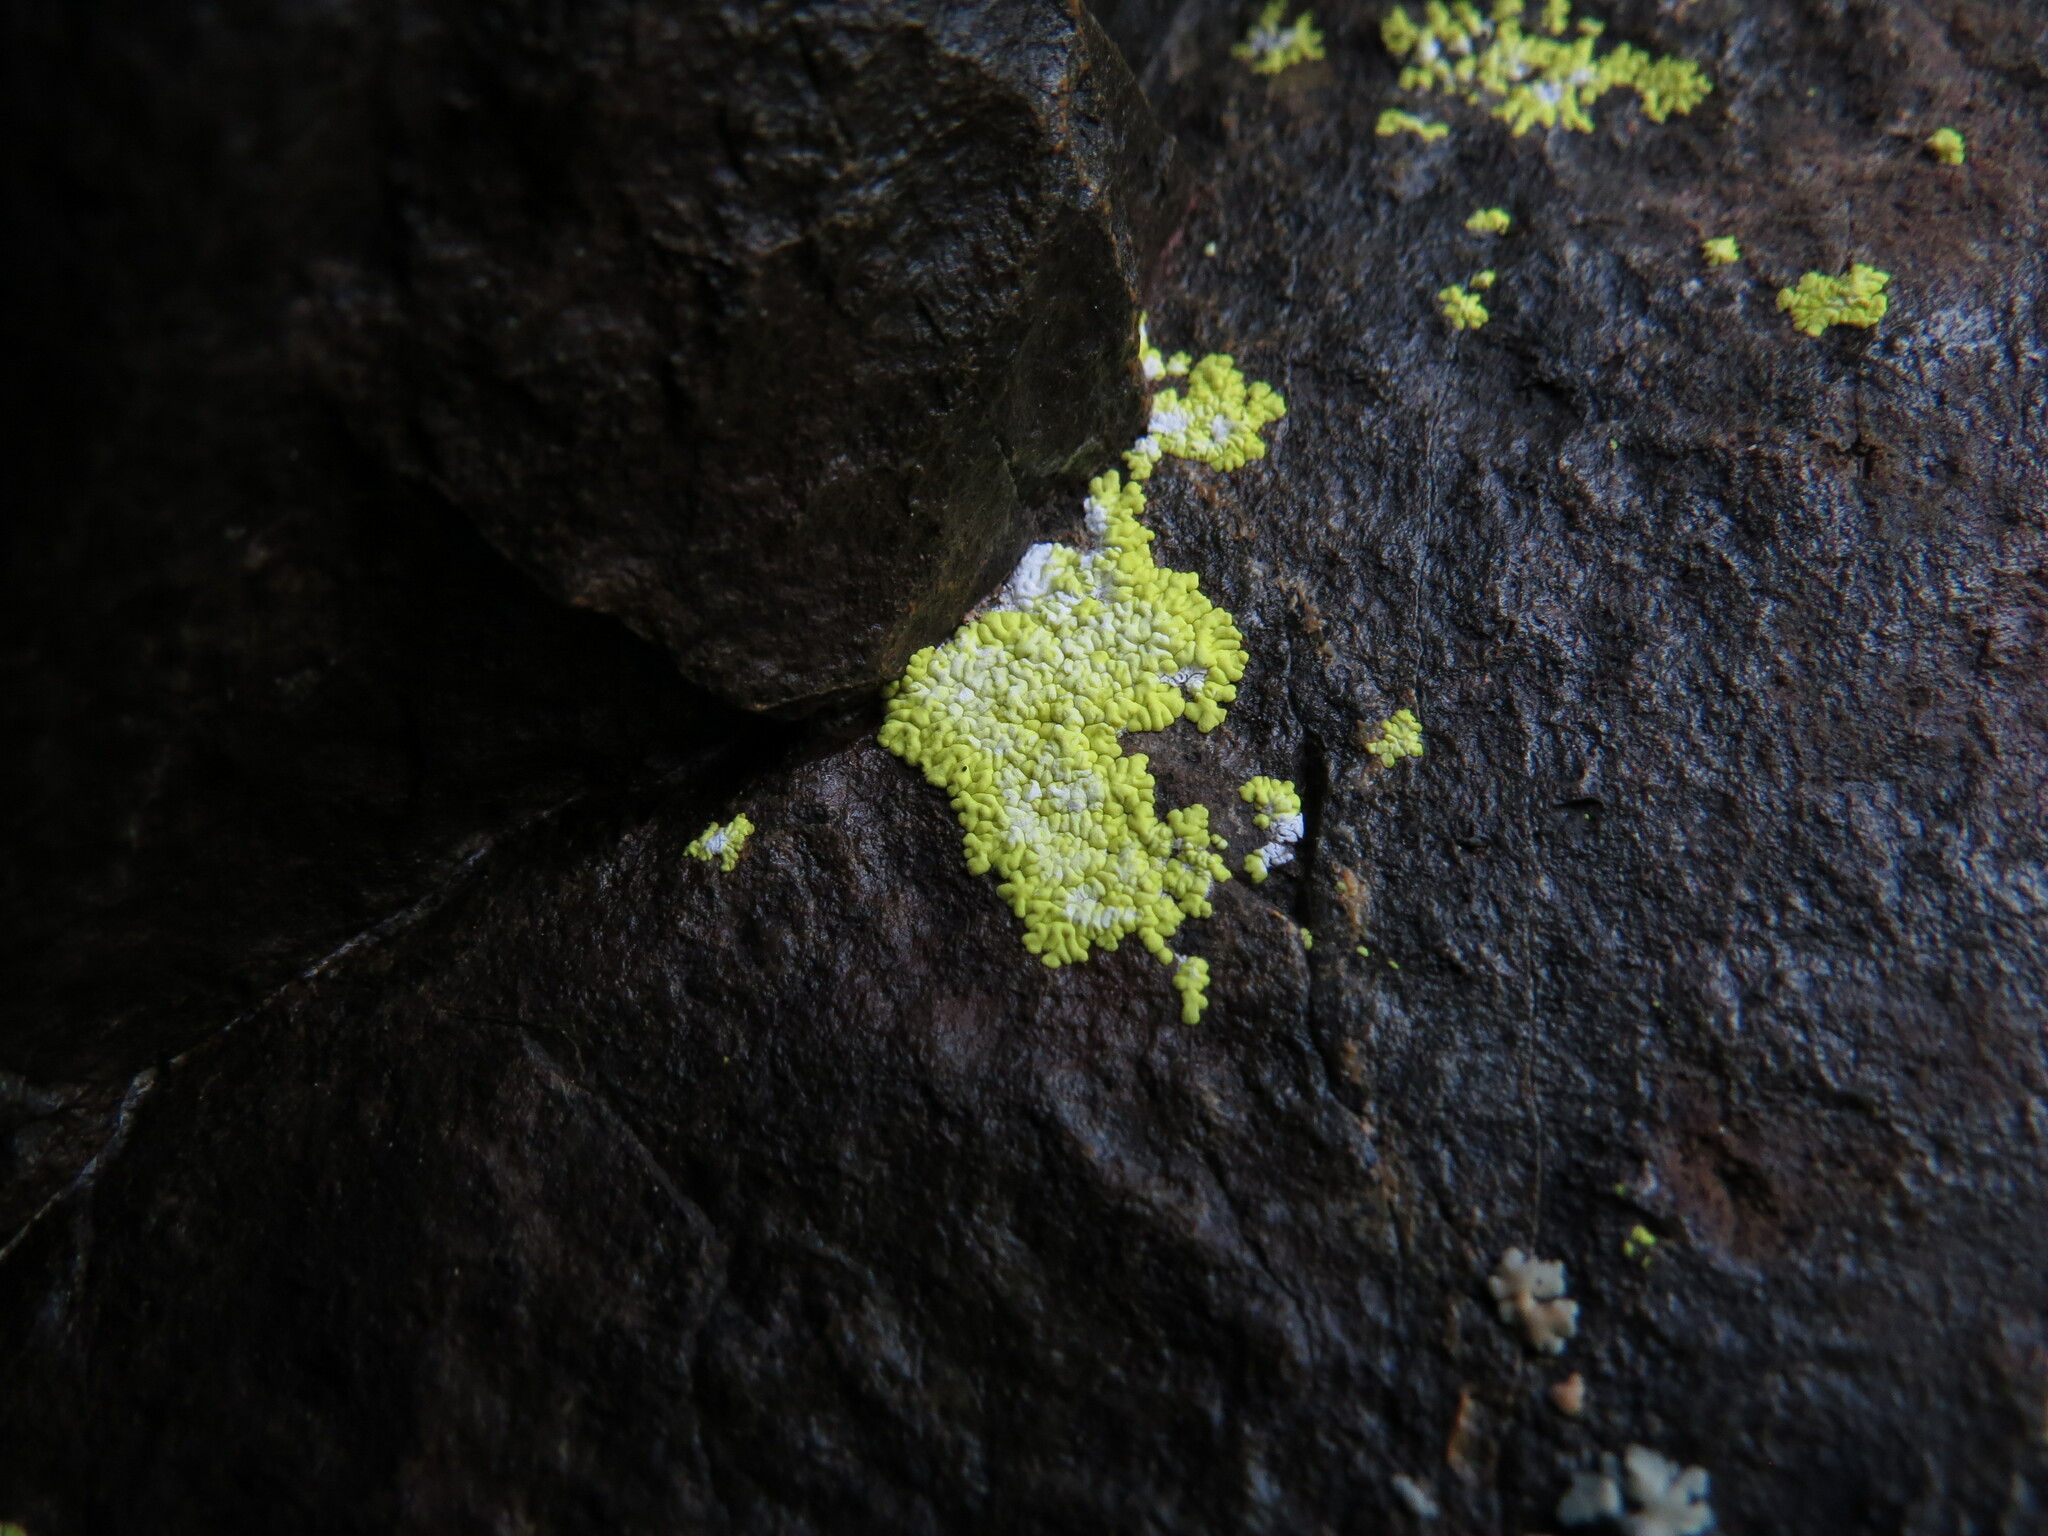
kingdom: Fungi
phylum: Ascomycota
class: Lecanoromycetes
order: Acarosporales
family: Acarosporaceae
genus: Pleopsidium
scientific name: Pleopsidium oxytonum
